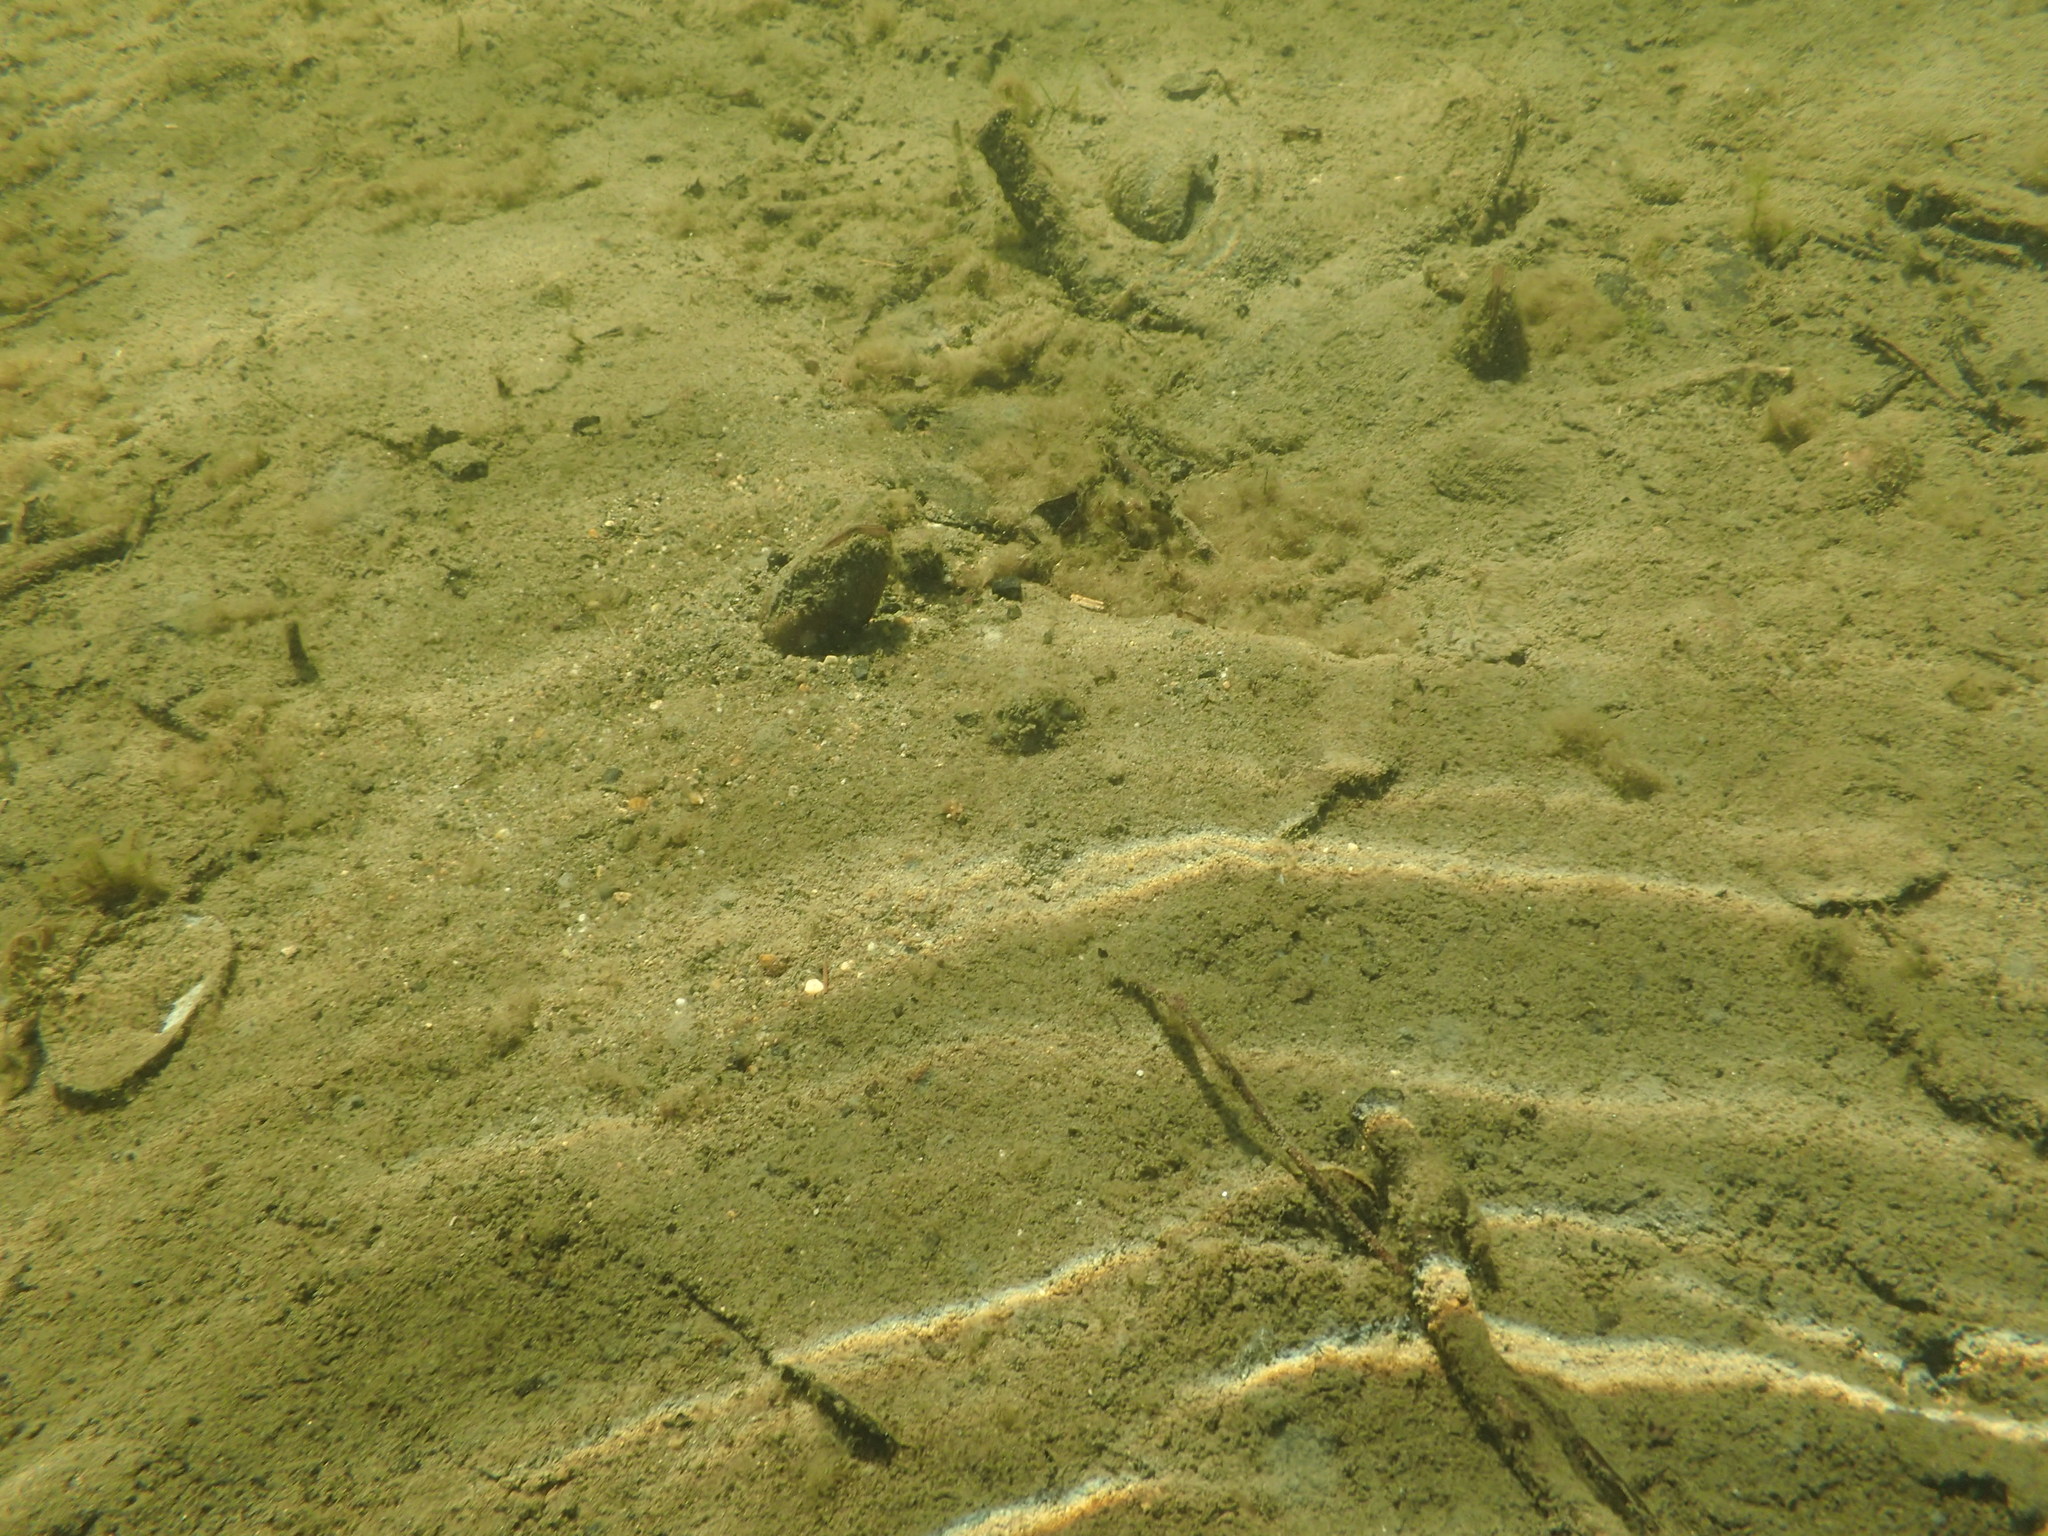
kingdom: Animalia
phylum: Mollusca
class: Bivalvia
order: Unionida
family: Unionidae
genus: Beringiana
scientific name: Beringiana beringiana
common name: Yukon floater
